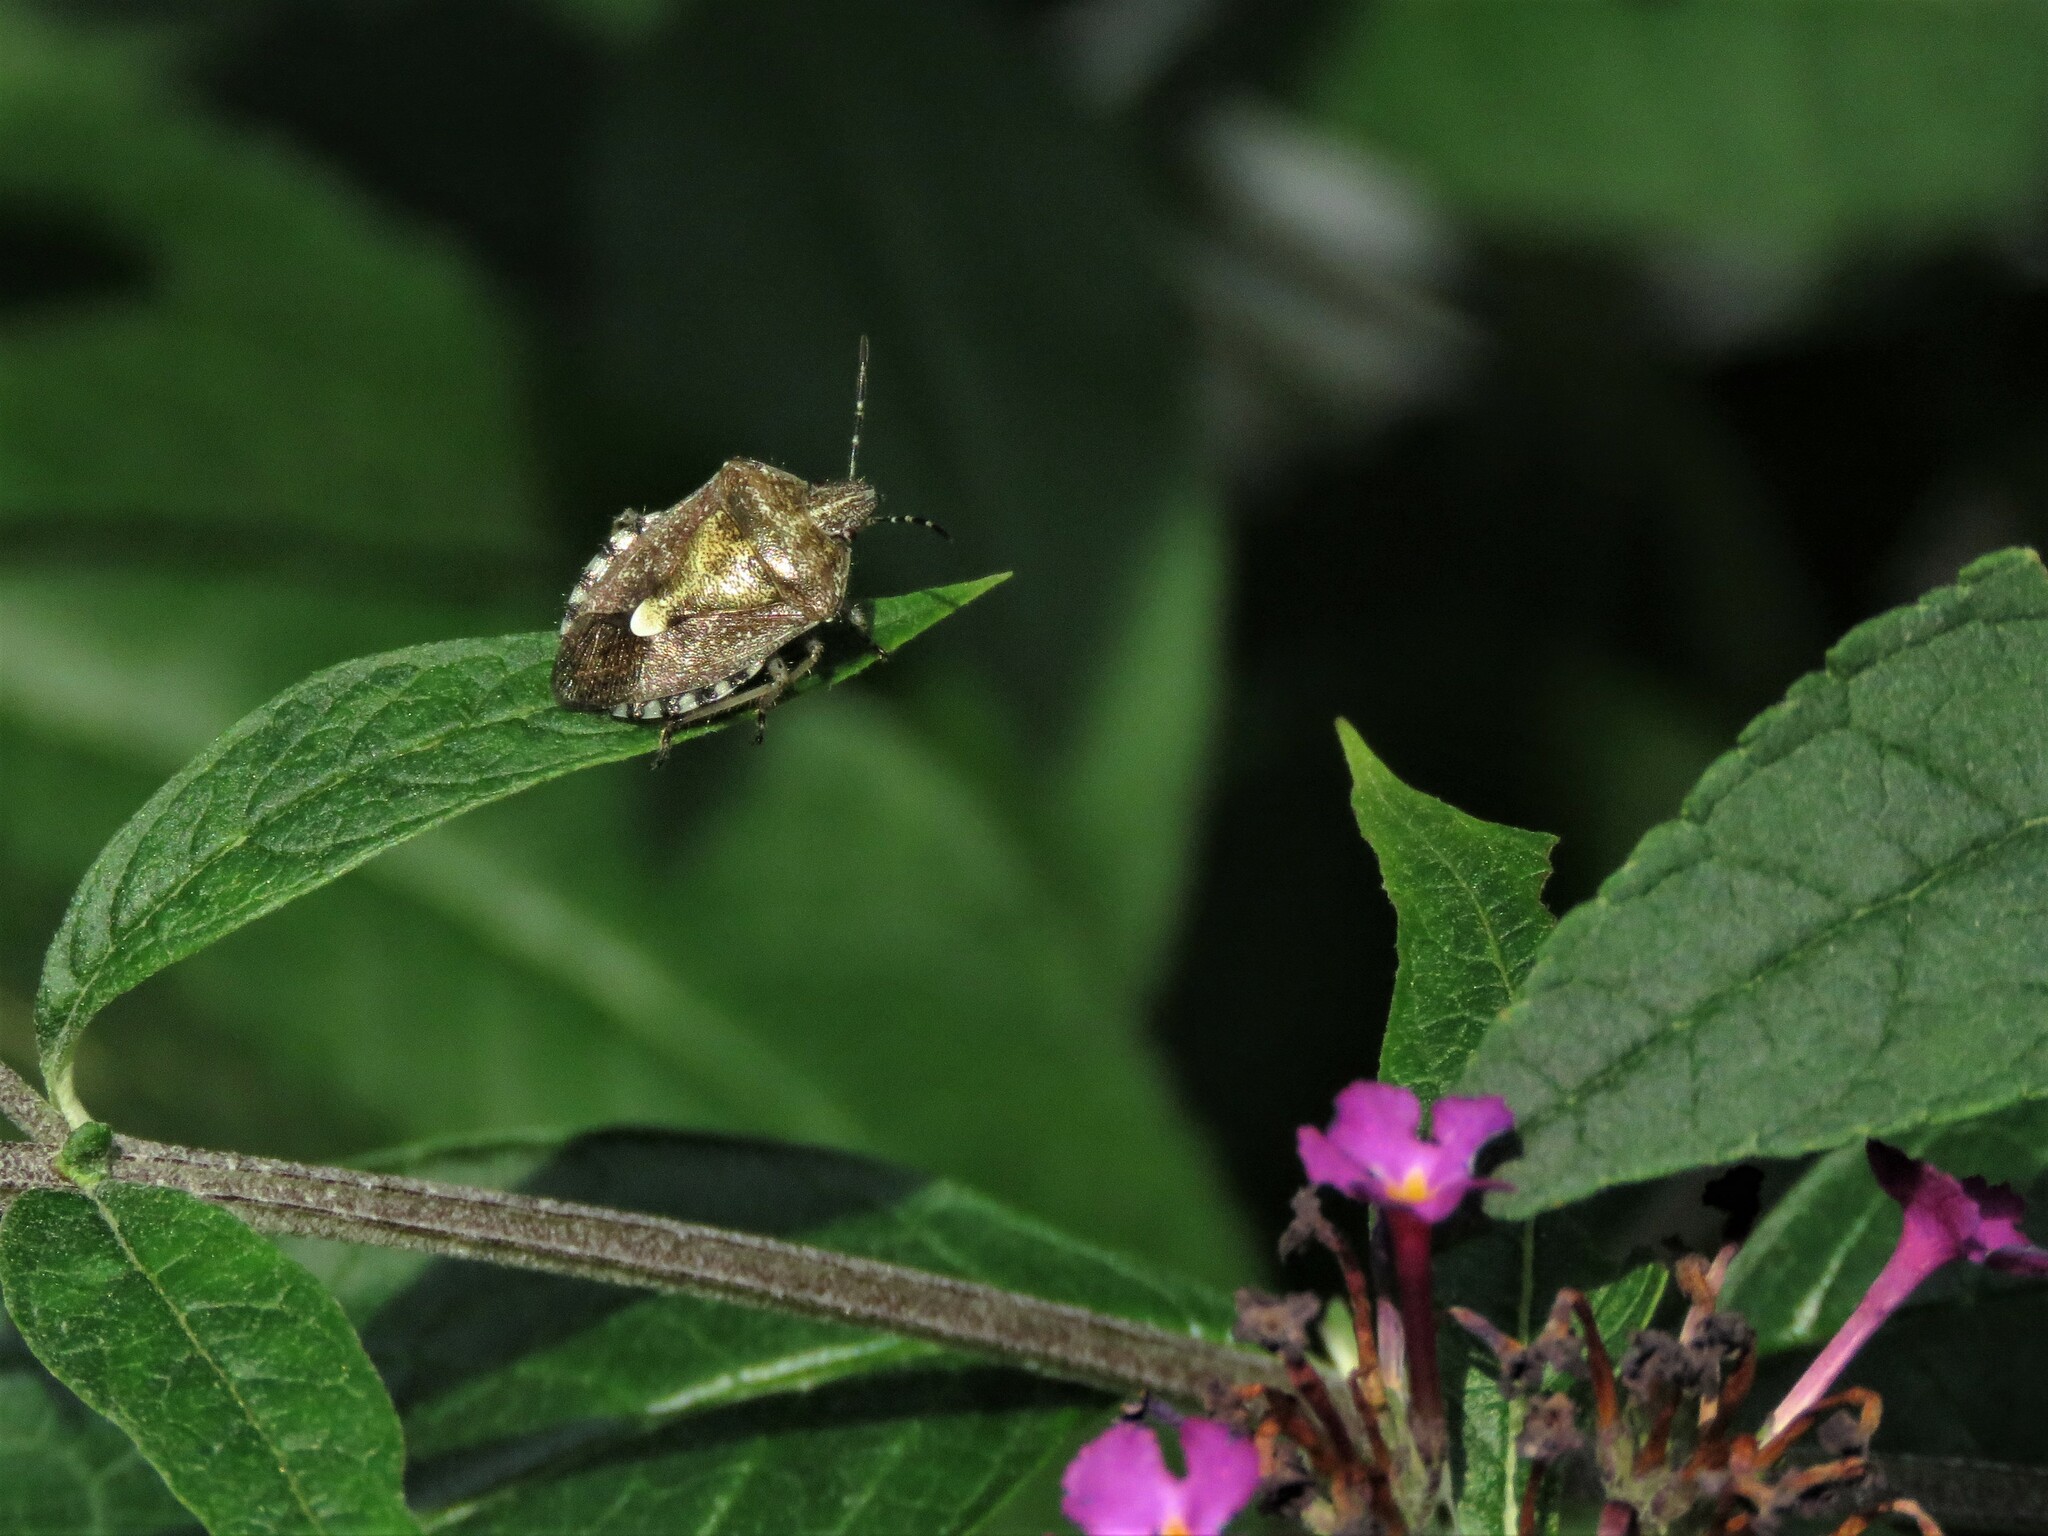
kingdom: Animalia
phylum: Arthropoda
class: Insecta
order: Hemiptera
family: Pentatomidae
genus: Dolycoris
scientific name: Dolycoris baccarum
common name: Sloe bug
